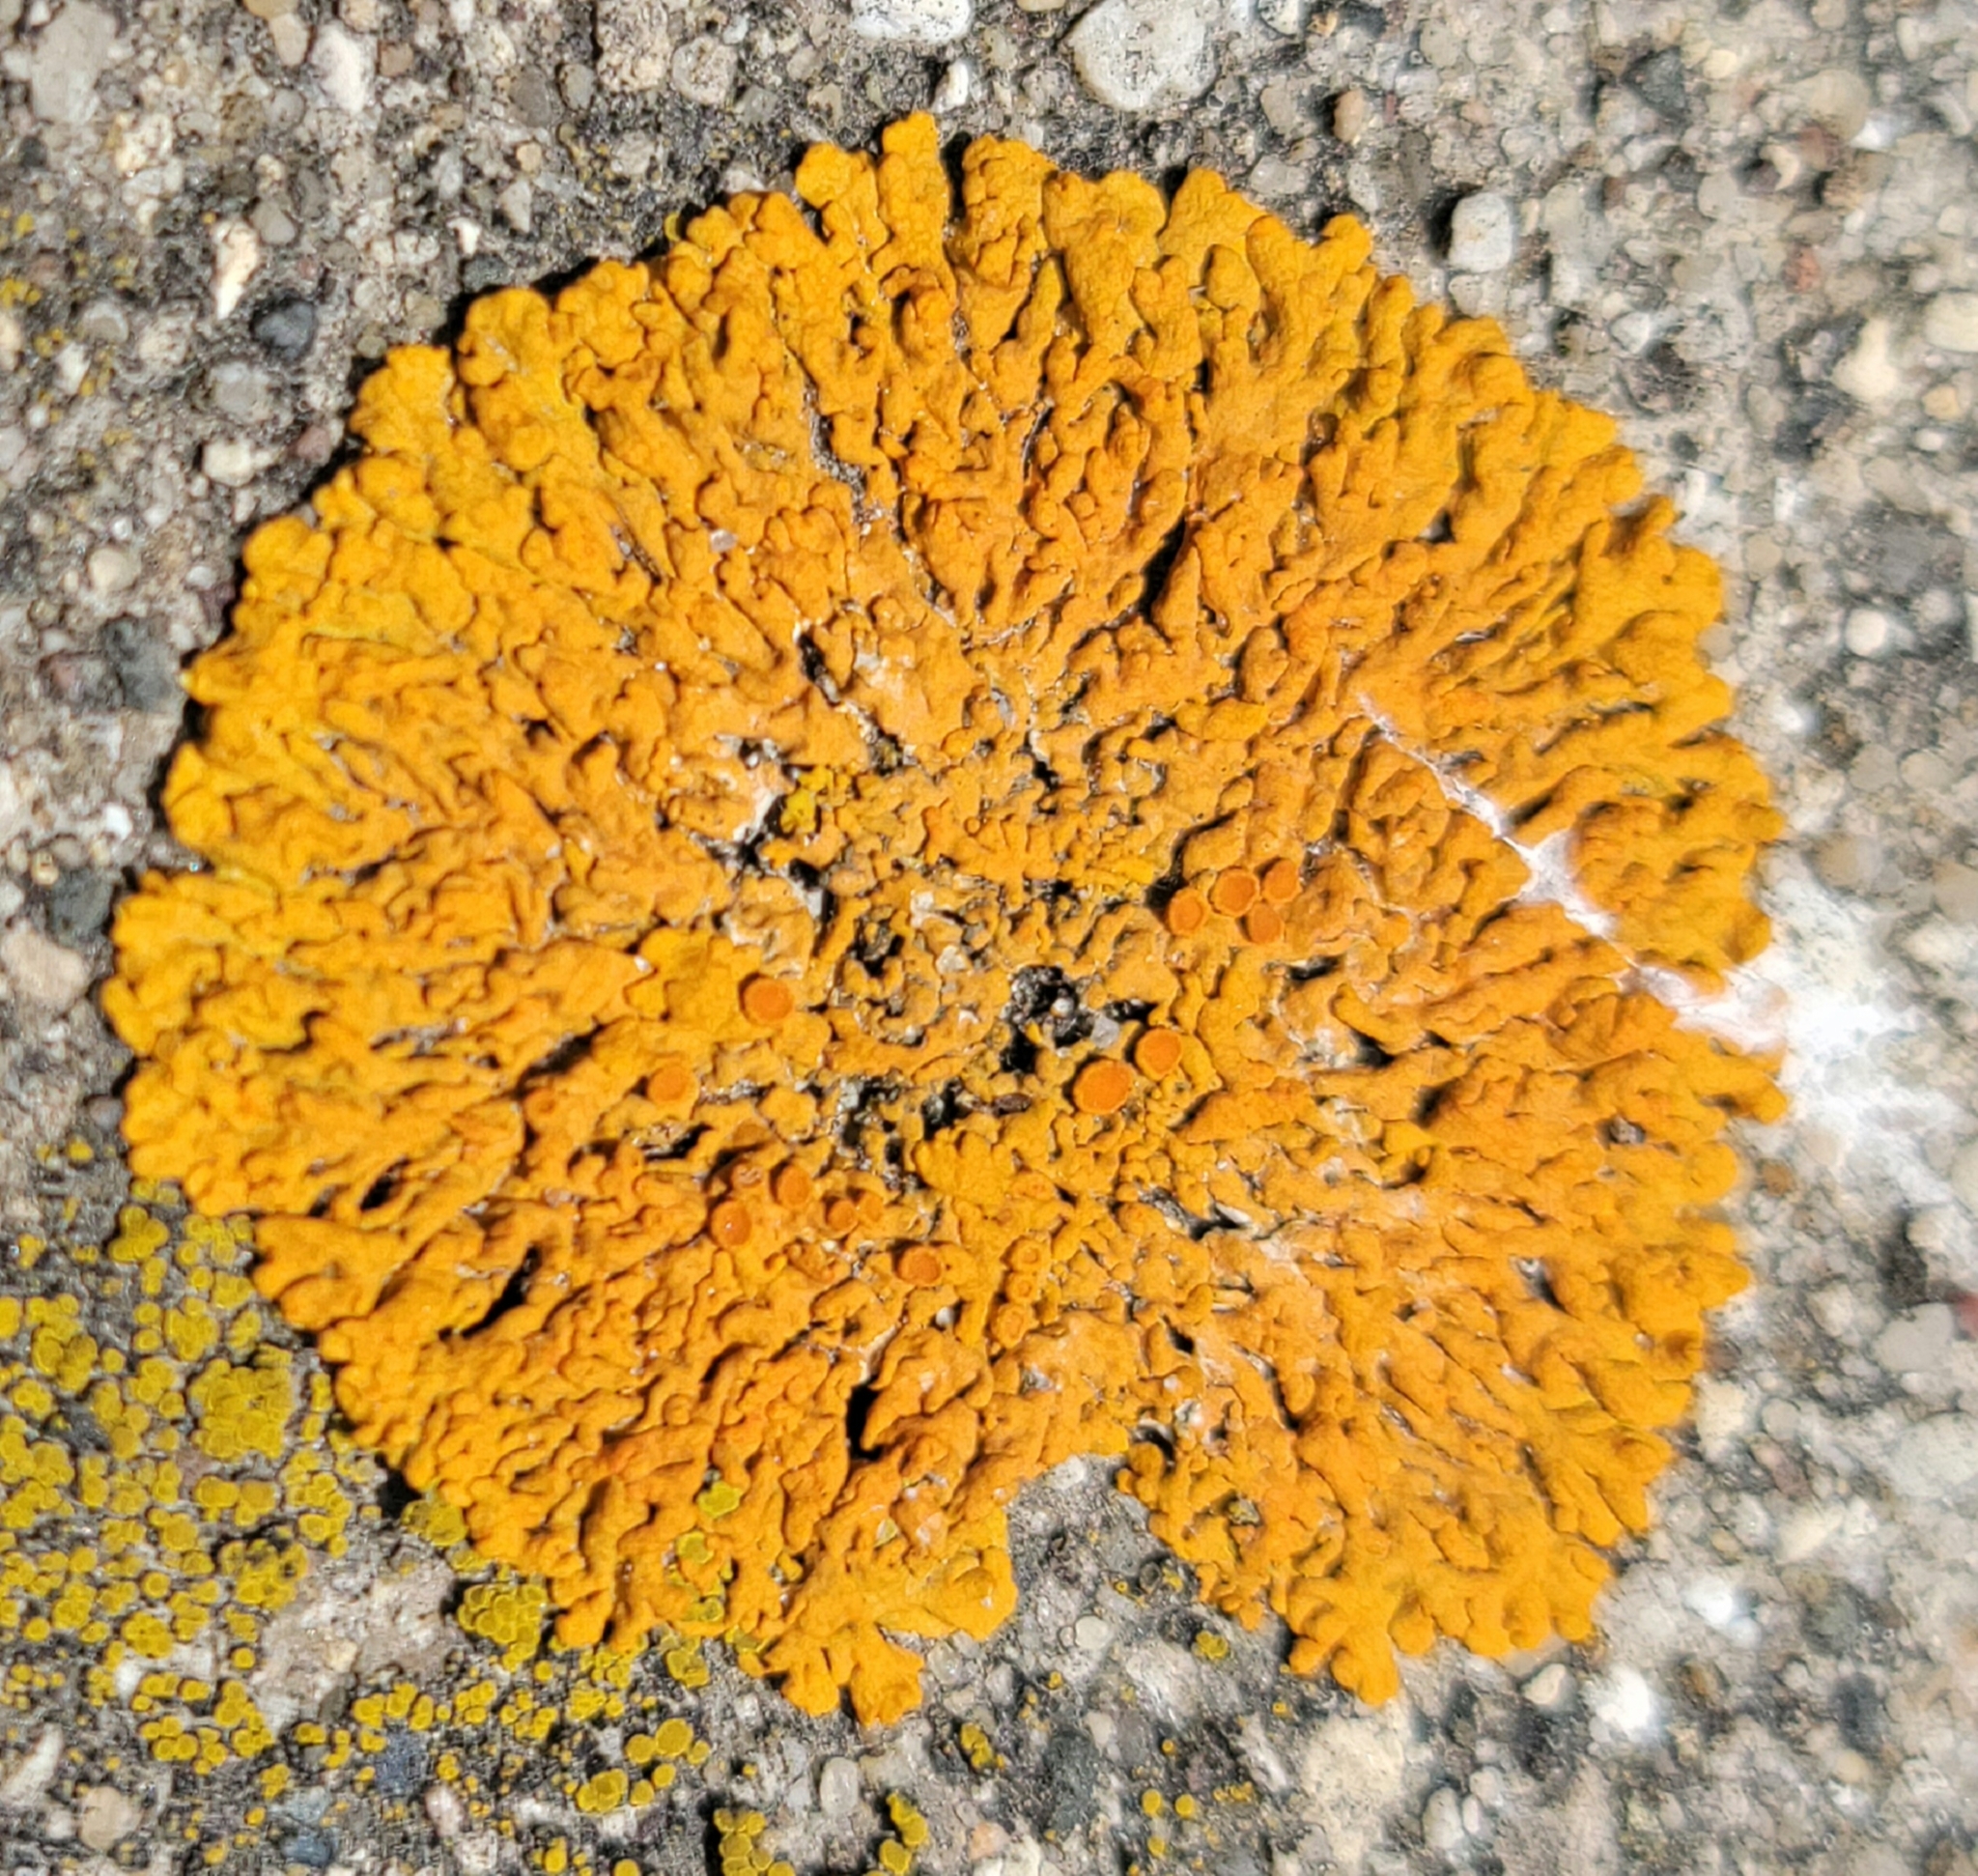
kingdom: Fungi
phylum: Ascomycota
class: Lecanoromycetes
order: Teloschistales
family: Teloschistaceae
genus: Xanthoria
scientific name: Xanthoria elegans
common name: Elegant sunburst lichen
